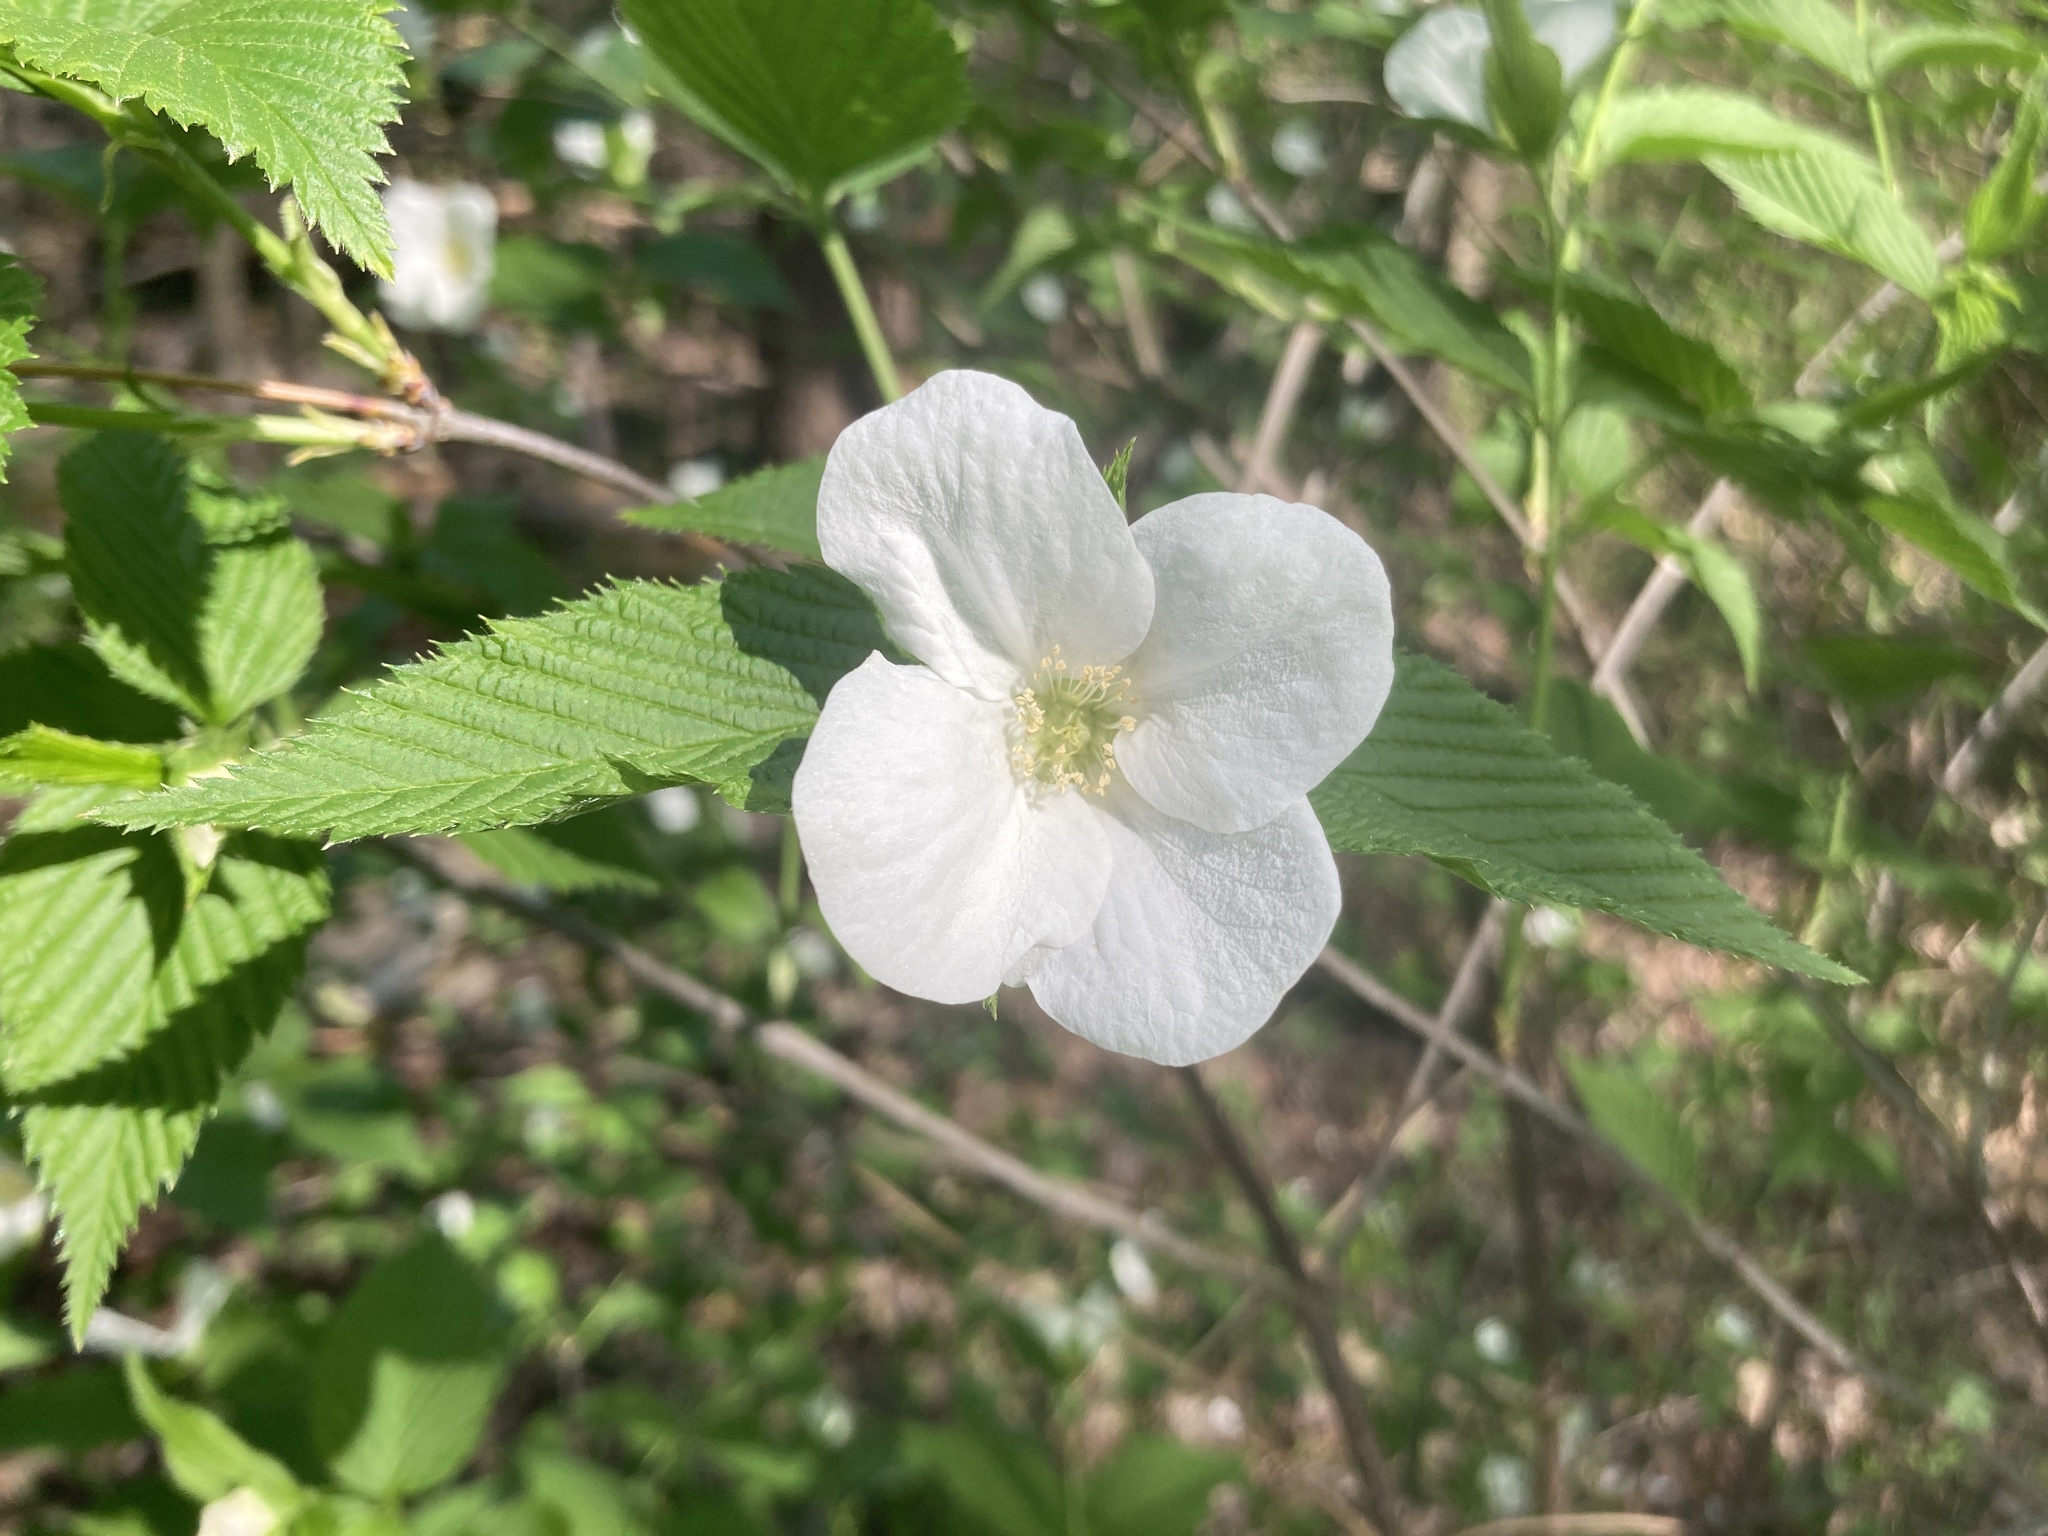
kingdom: Plantae
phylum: Tracheophyta
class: Magnoliopsida
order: Rosales
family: Rosaceae
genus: Rhodotypos
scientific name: Rhodotypos scandens
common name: Jetbead
